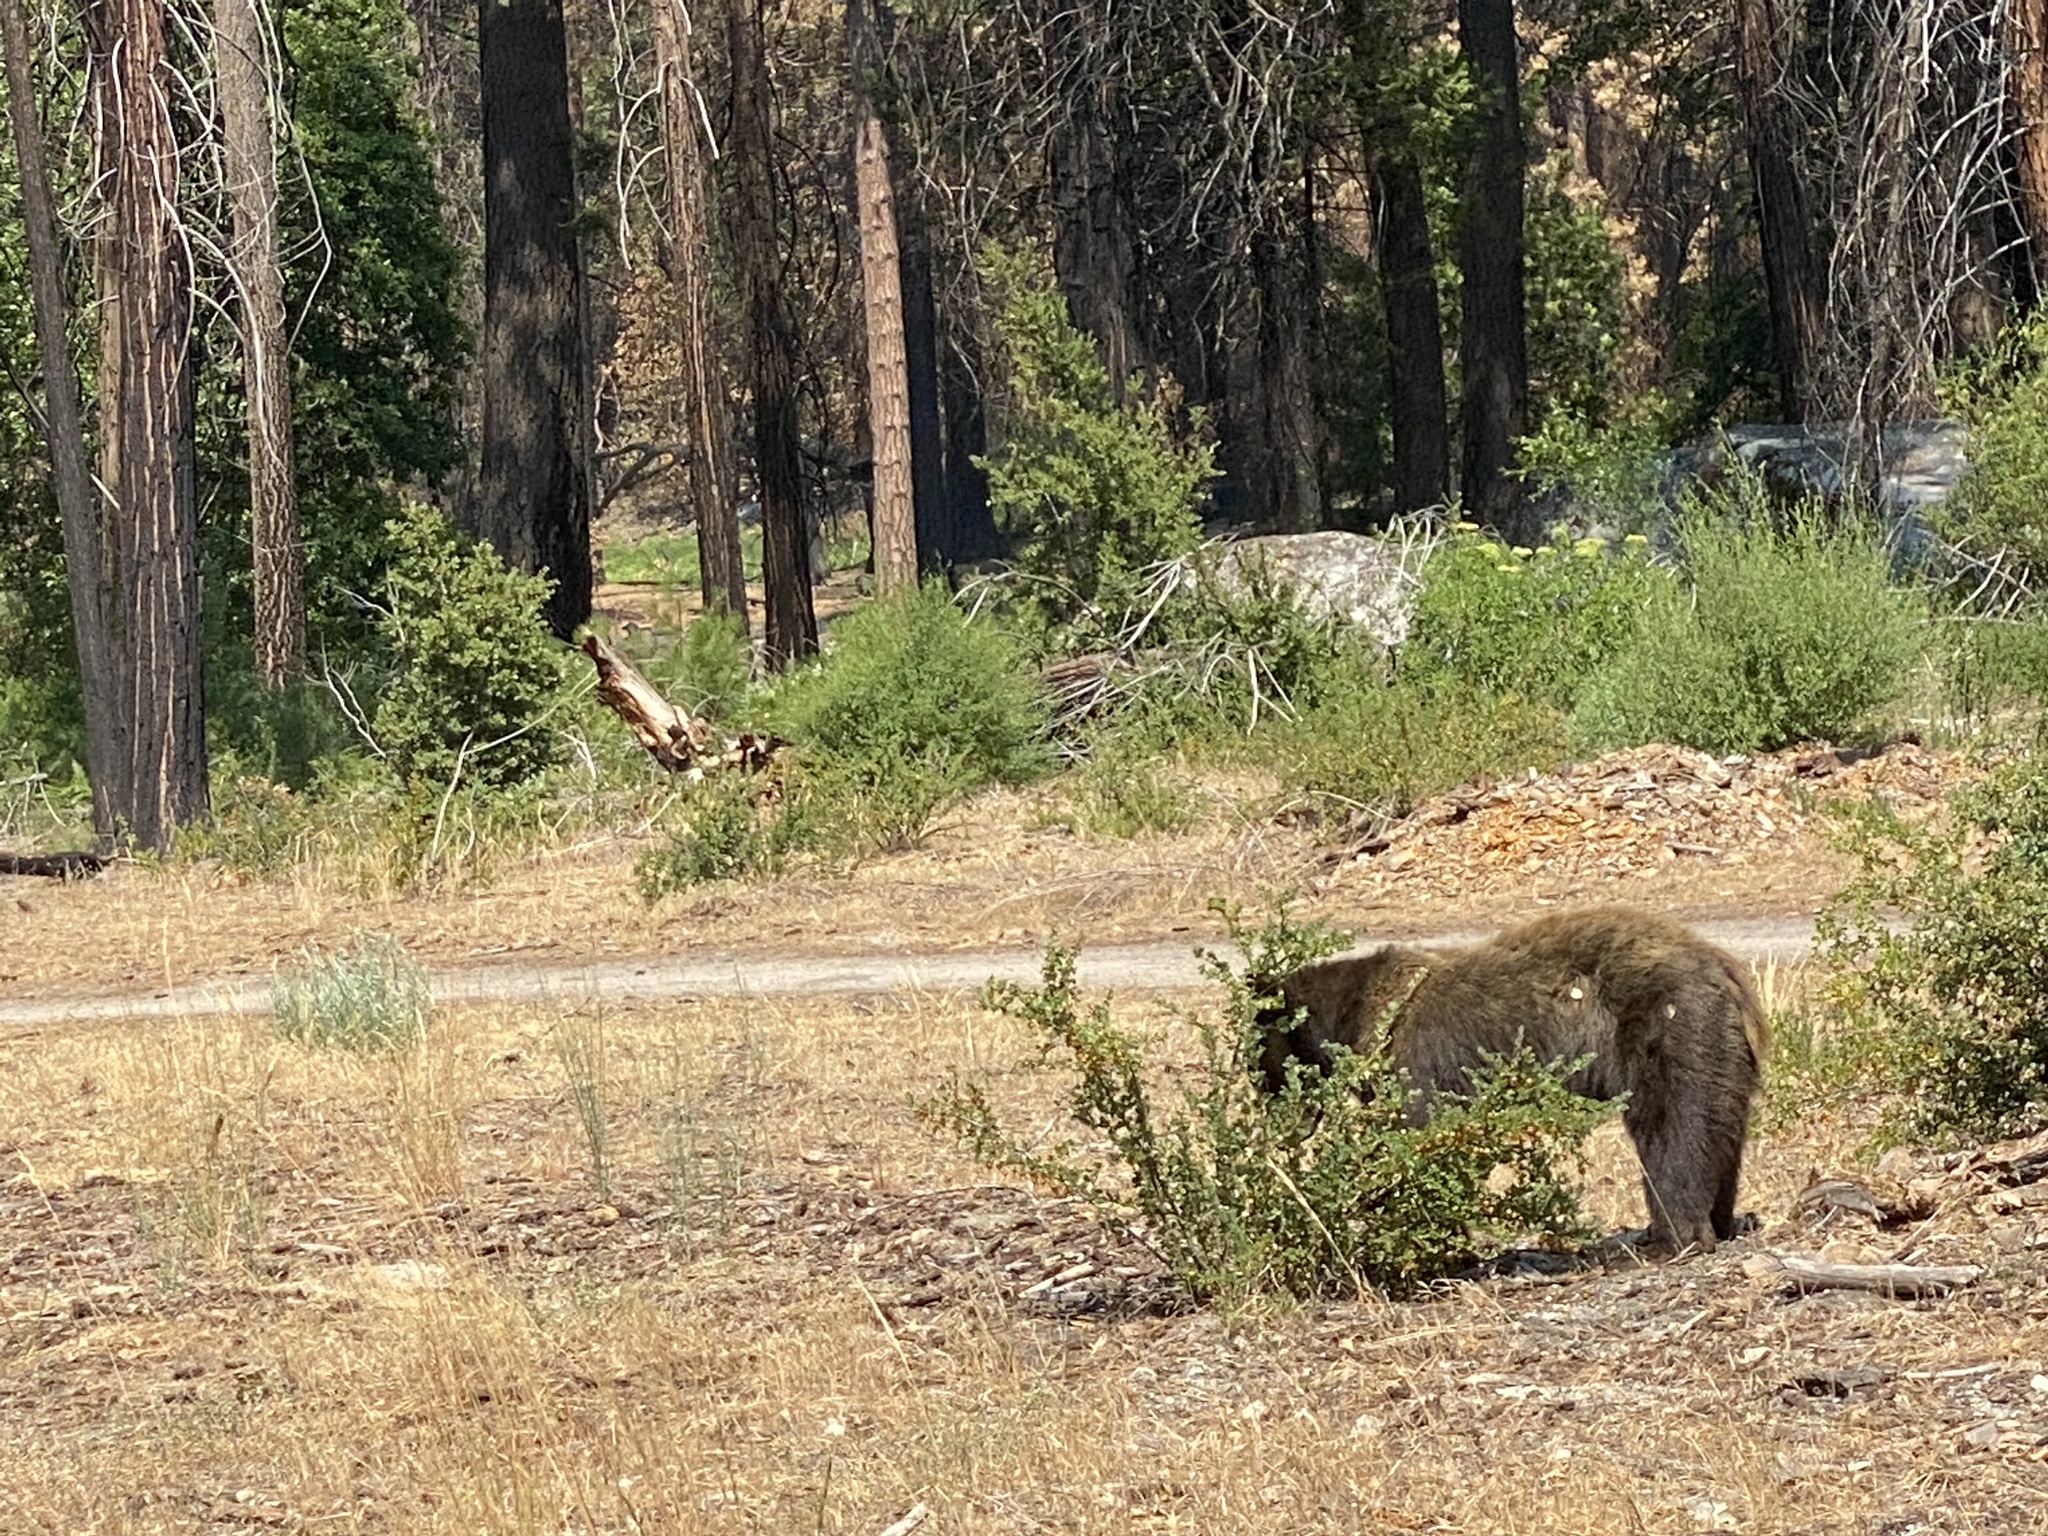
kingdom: Animalia
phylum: Chordata
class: Mammalia
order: Carnivora
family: Ursidae
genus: Ursus
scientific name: Ursus americanus
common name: American black bear
